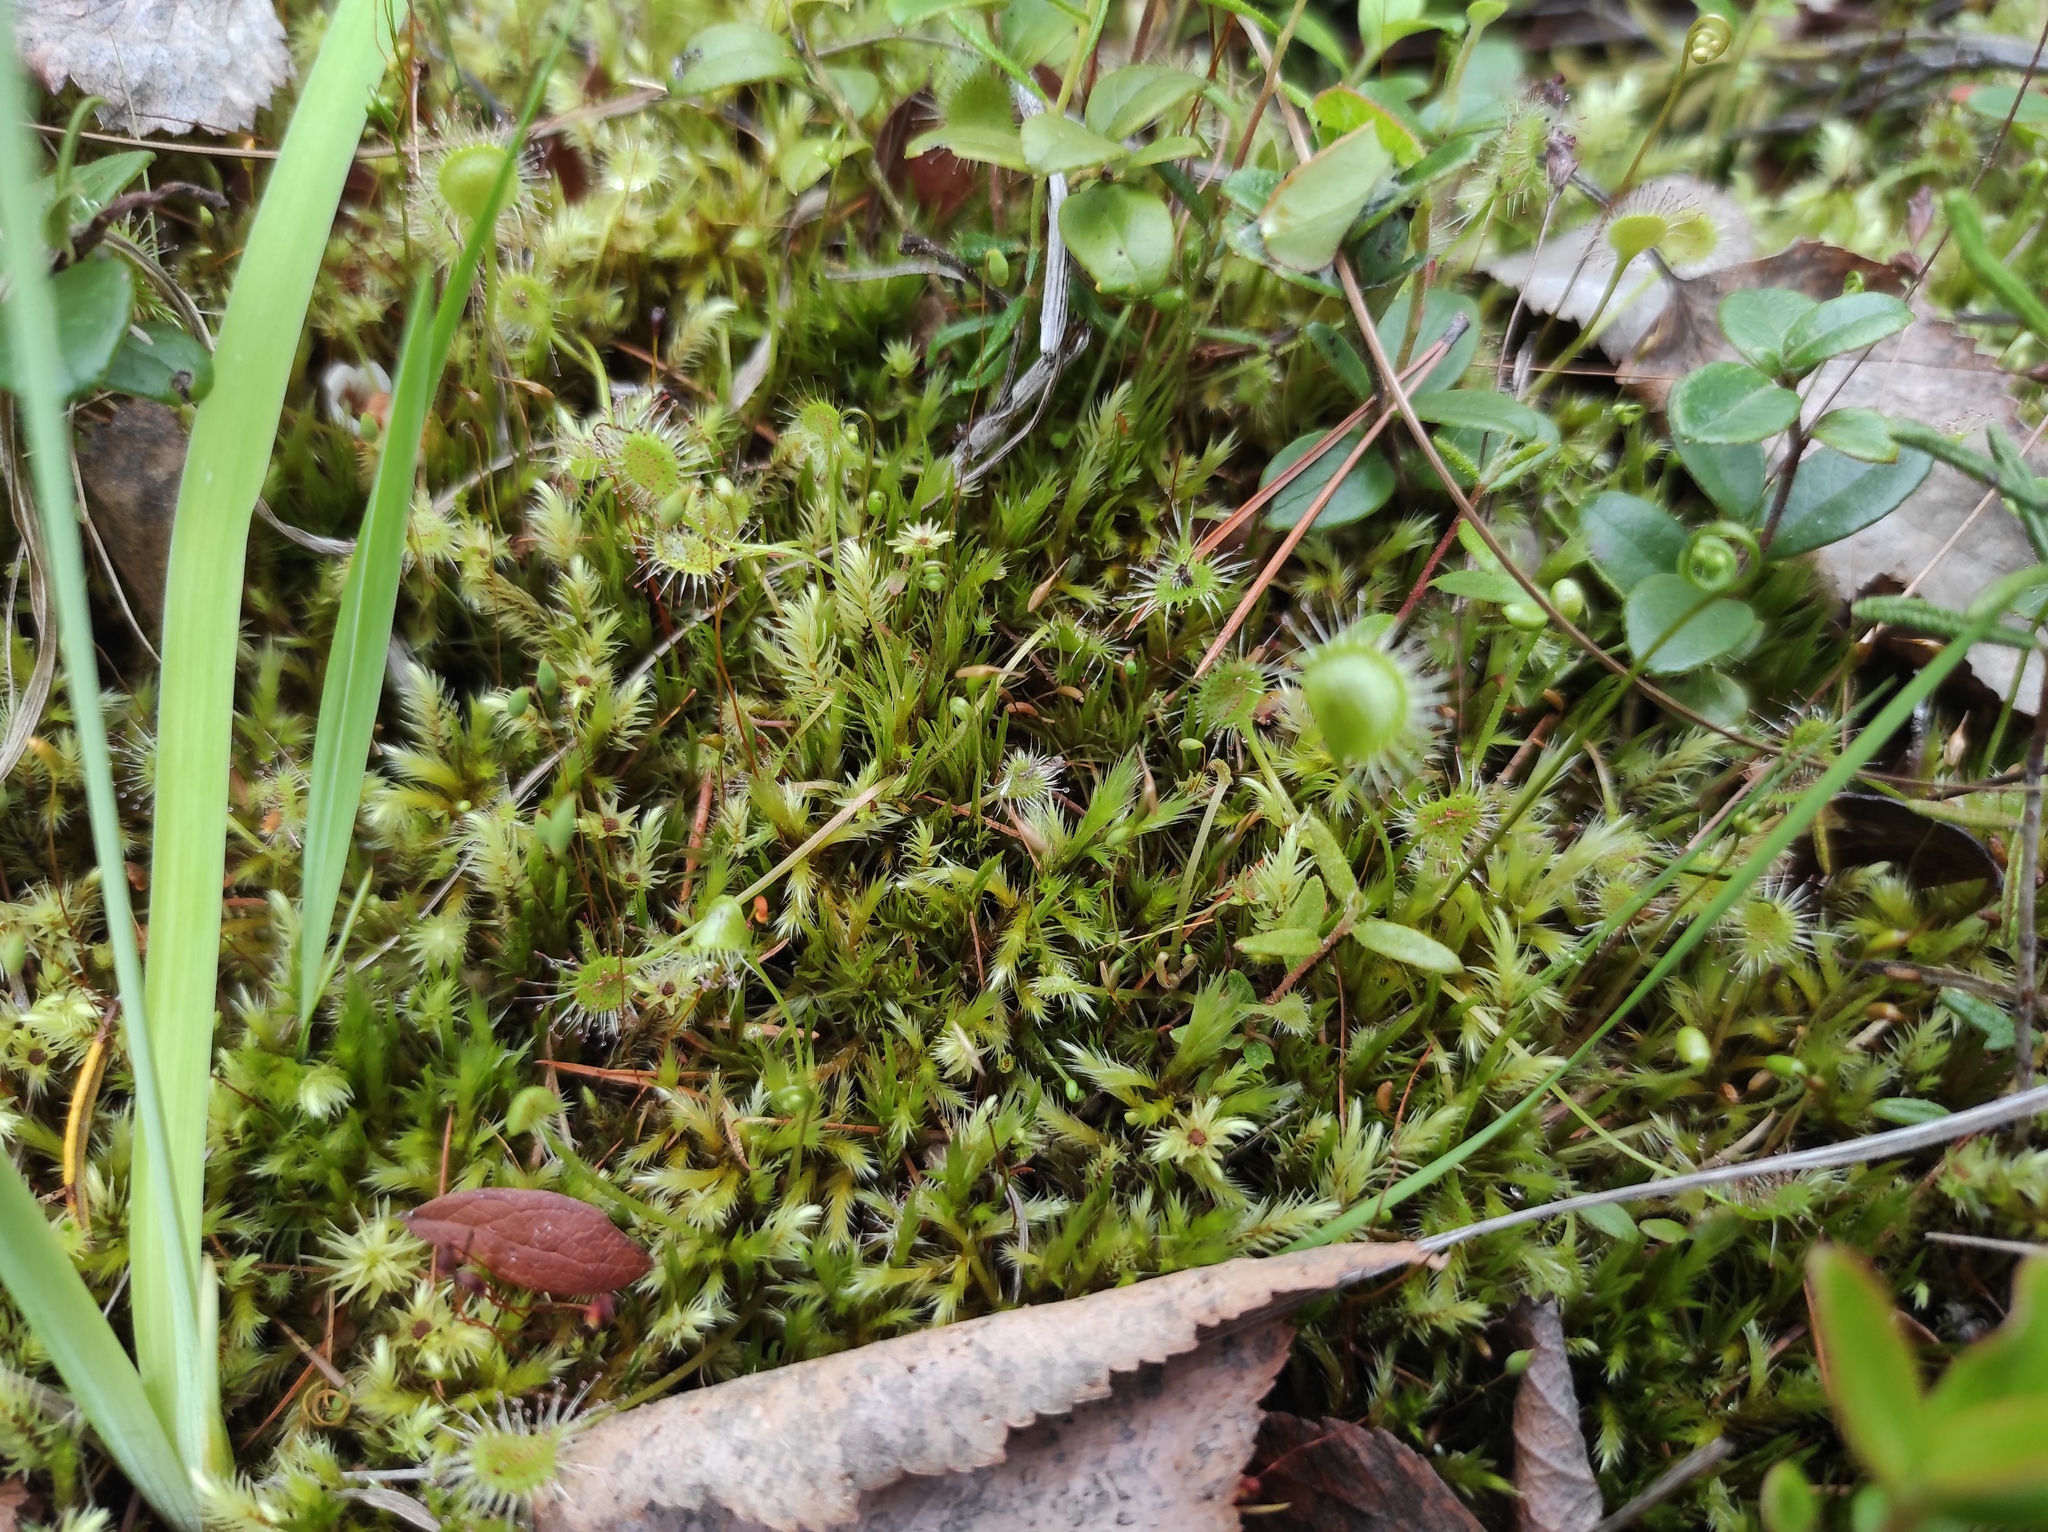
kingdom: Plantae
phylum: Tracheophyta
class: Magnoliopsida
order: Ericales
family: Ericaceae
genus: Vaccinium
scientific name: Vaccinium vitis-idaea
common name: Cowberry
